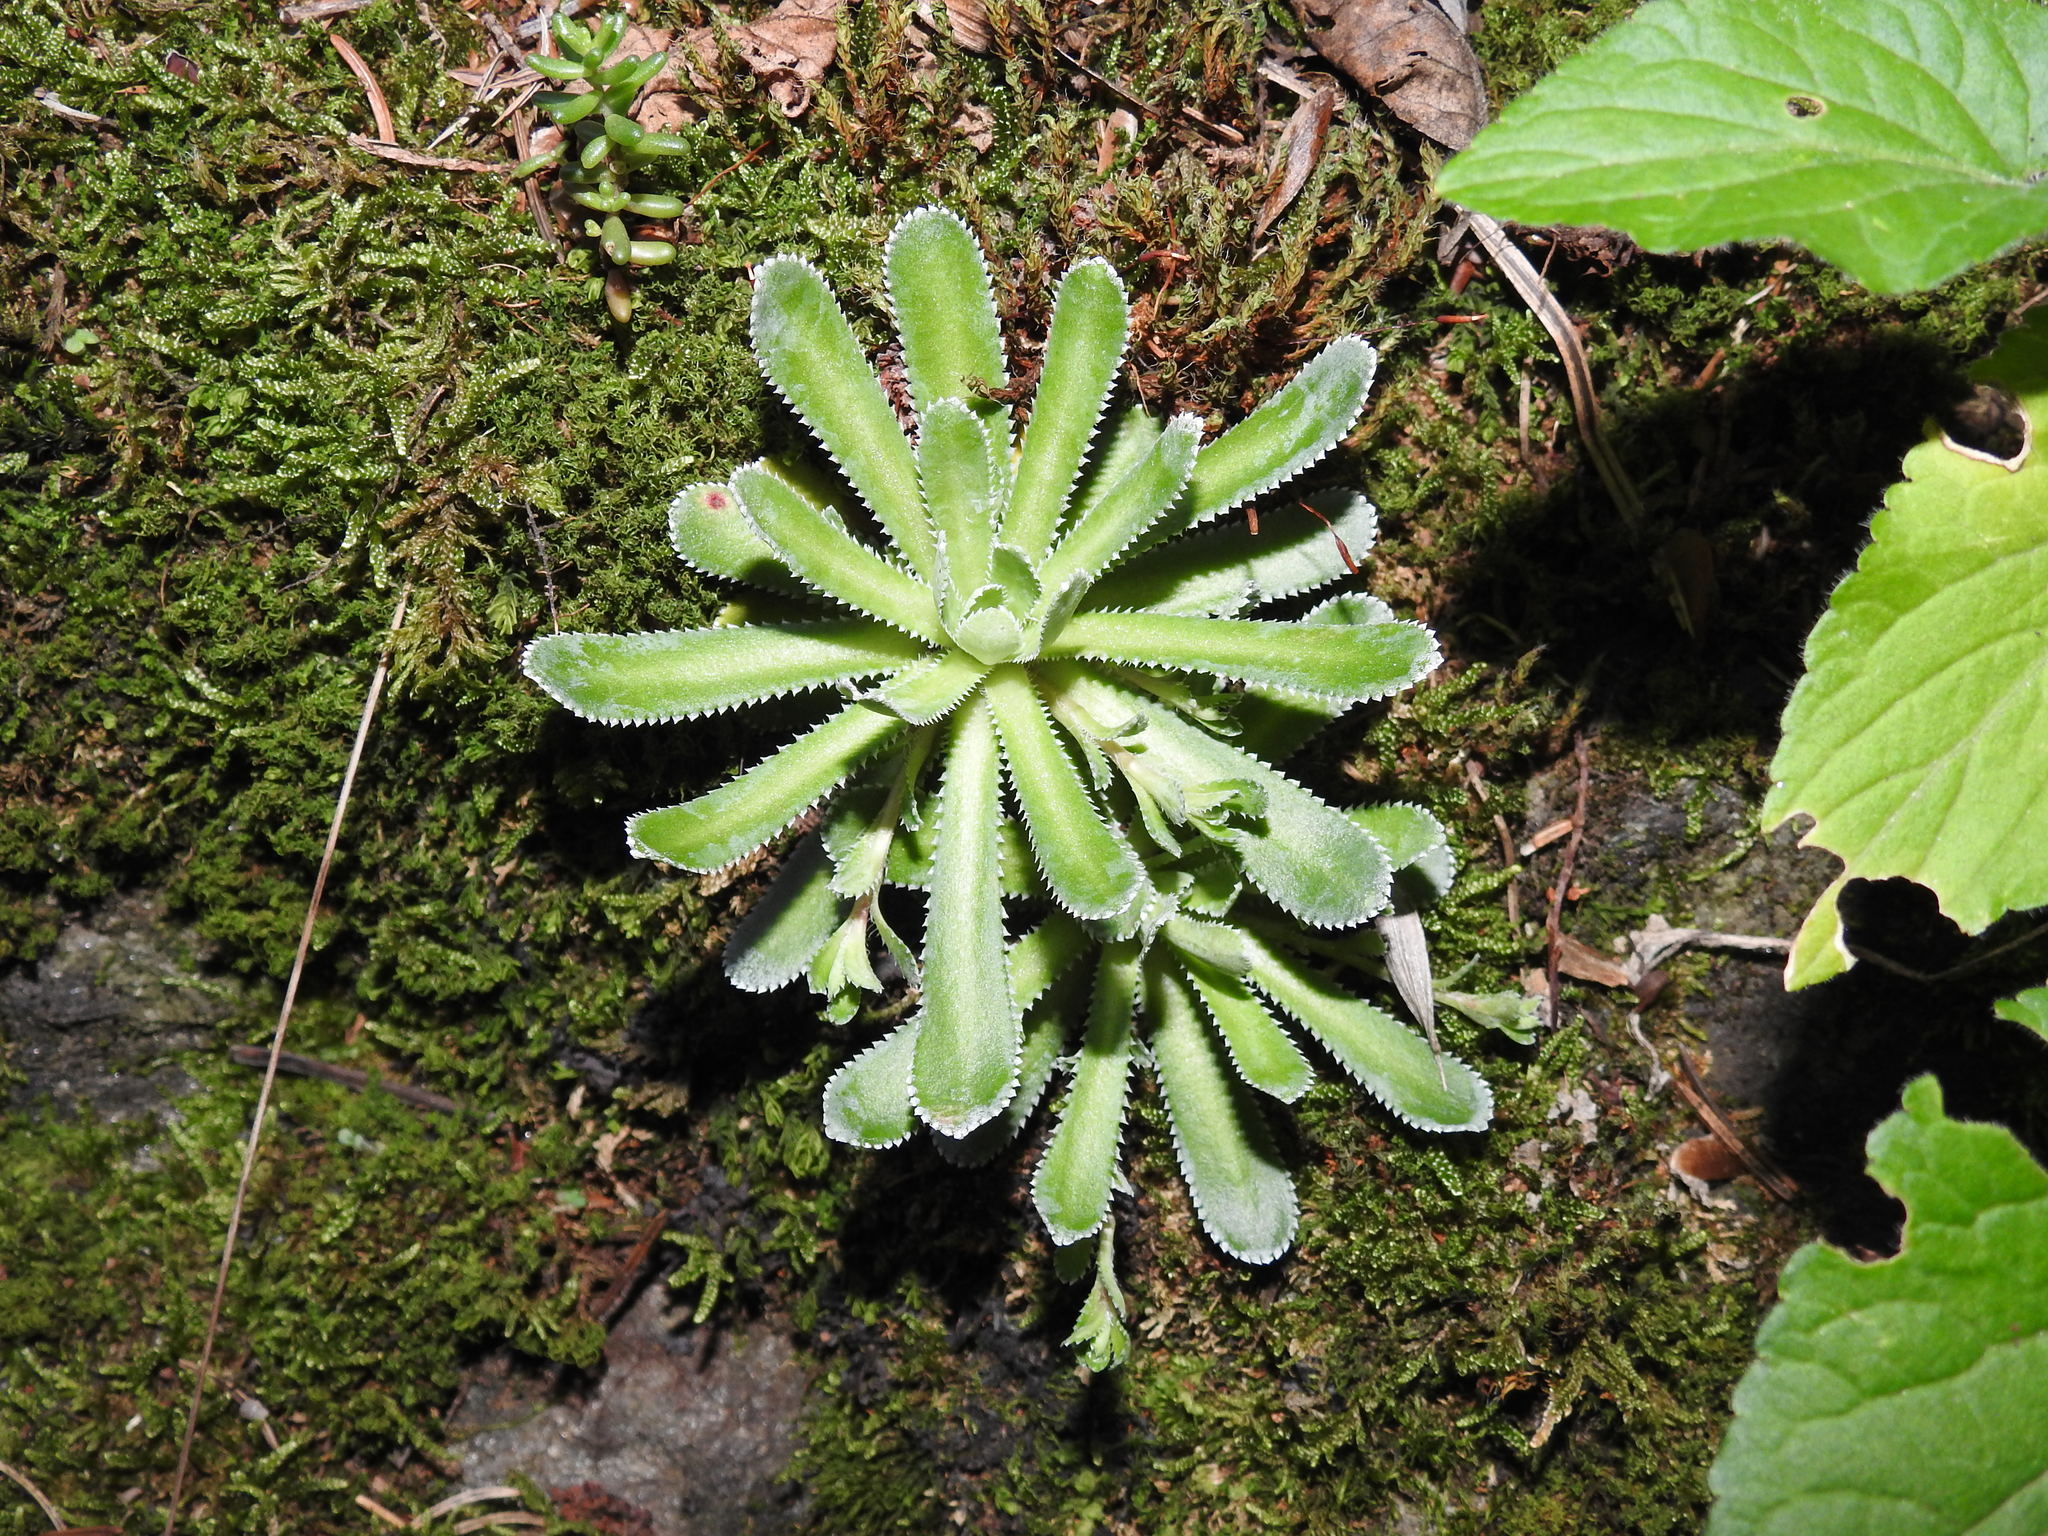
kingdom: Plantae
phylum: Tracheophyta
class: Magnoliopsida
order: Saxifragales
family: Saxifragaceae
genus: Saxifraga
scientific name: Saxifraga paniculata
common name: Livelong saxifrage
